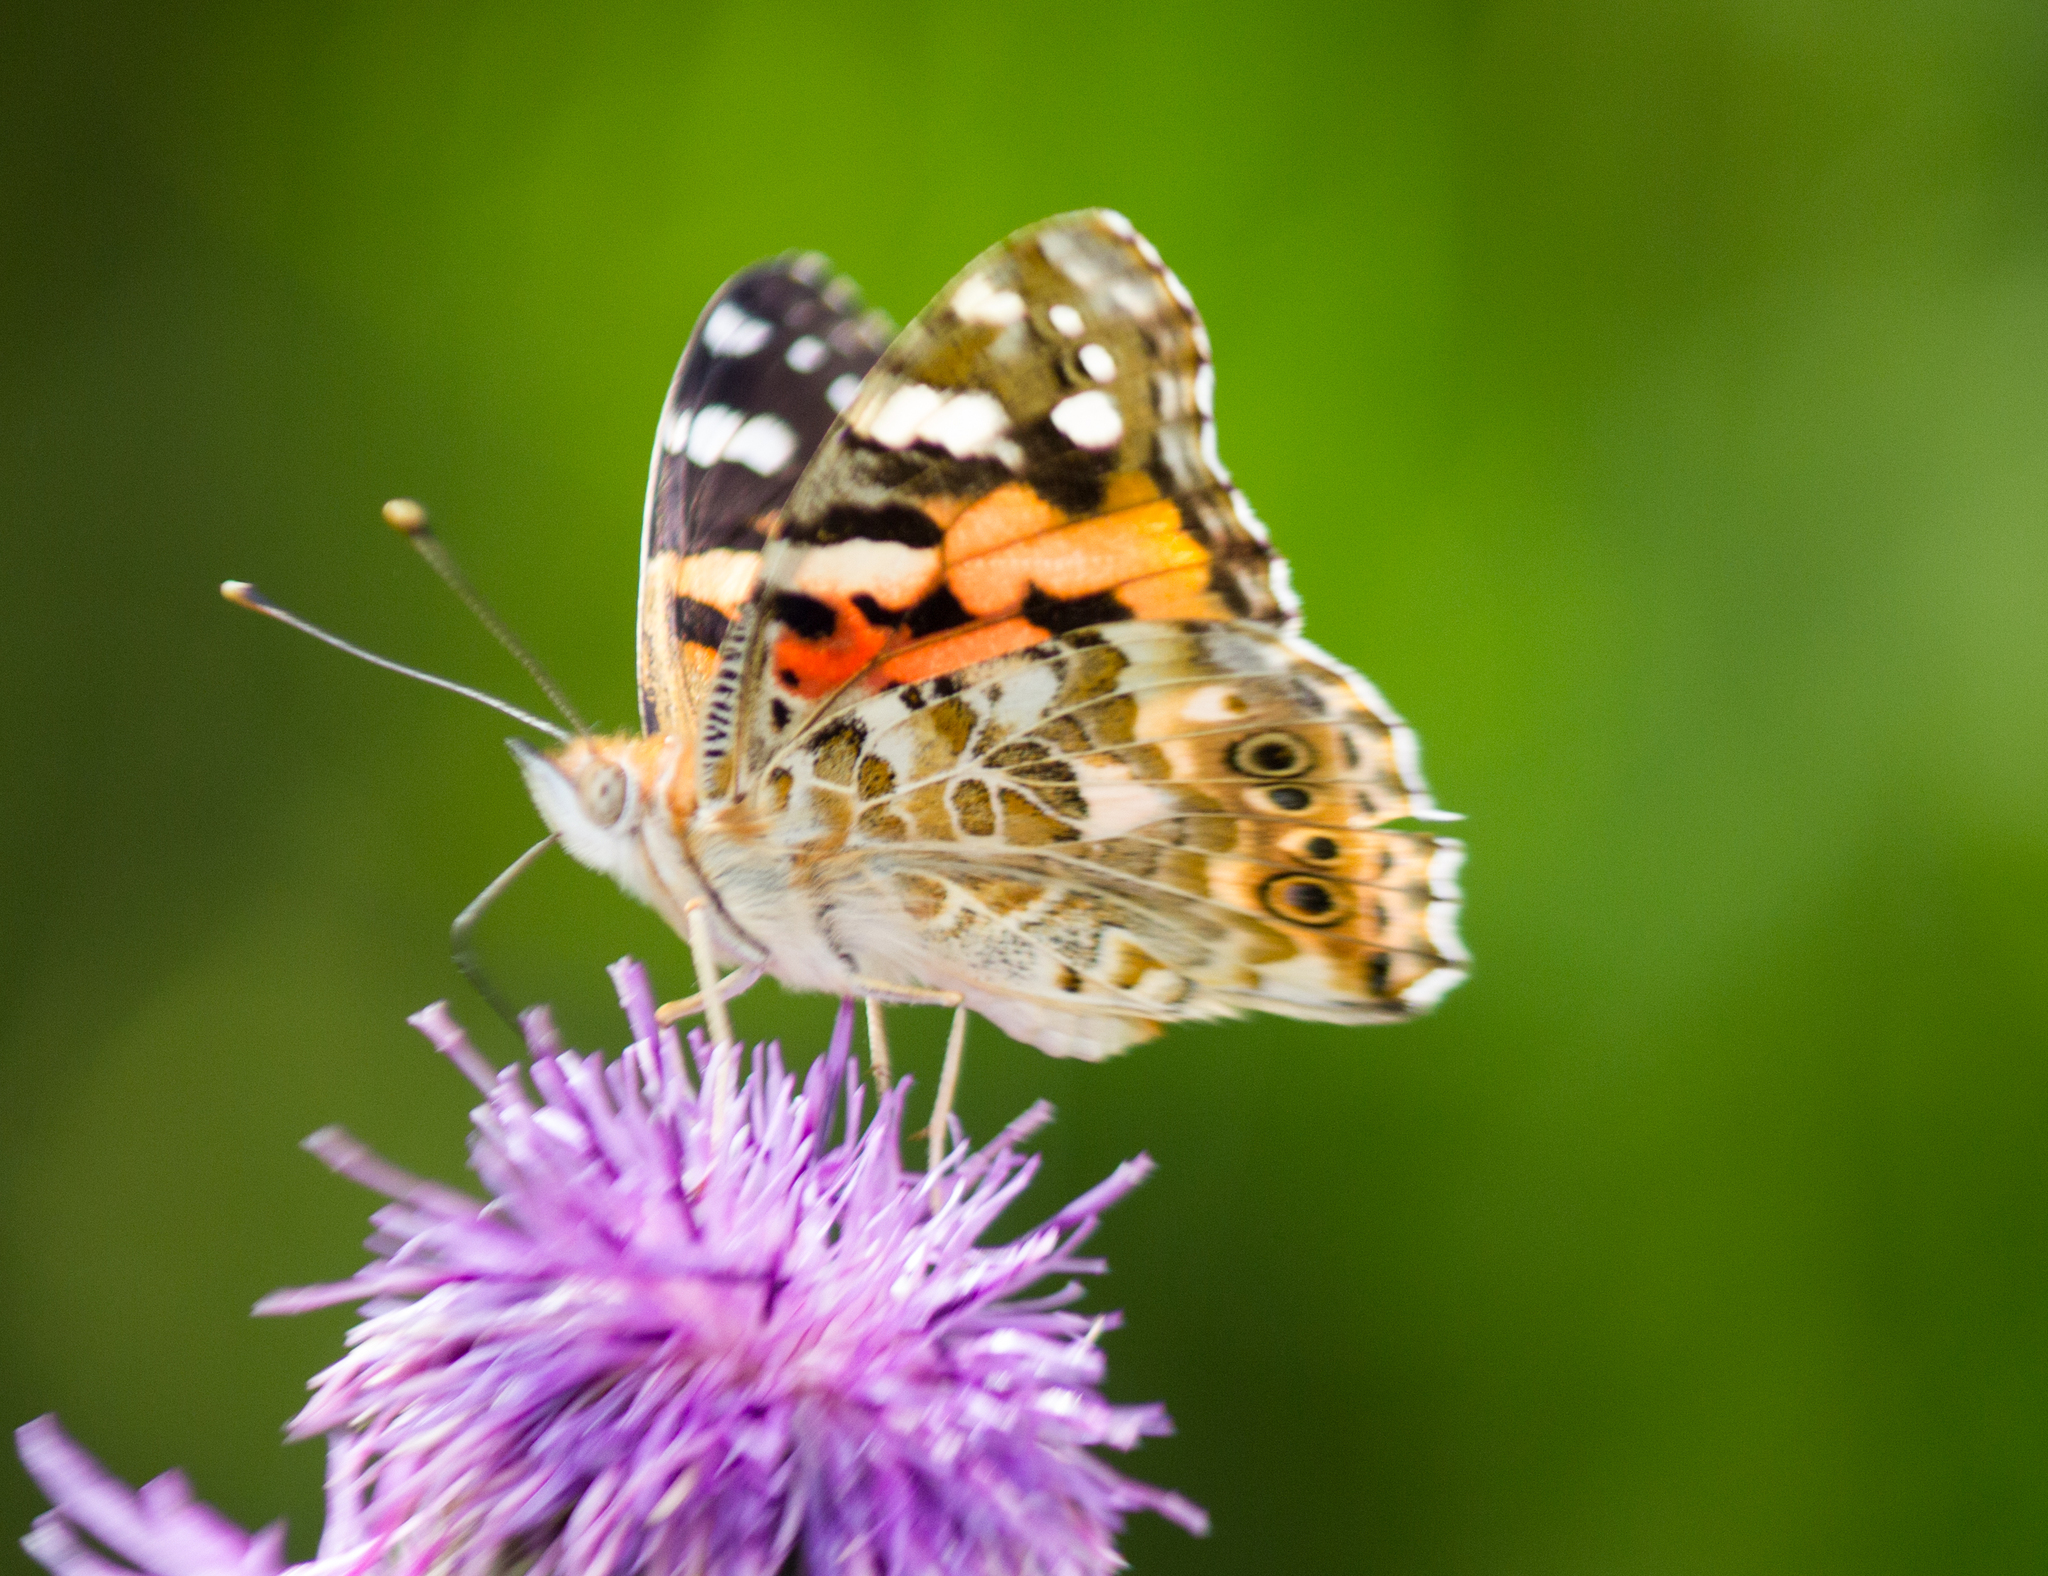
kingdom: Animalia
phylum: Arthropoda
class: Insecta
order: Lepidoptera
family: Nymphalidae
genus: Vanessa
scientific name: Vanessa cardui
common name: Painted lady
